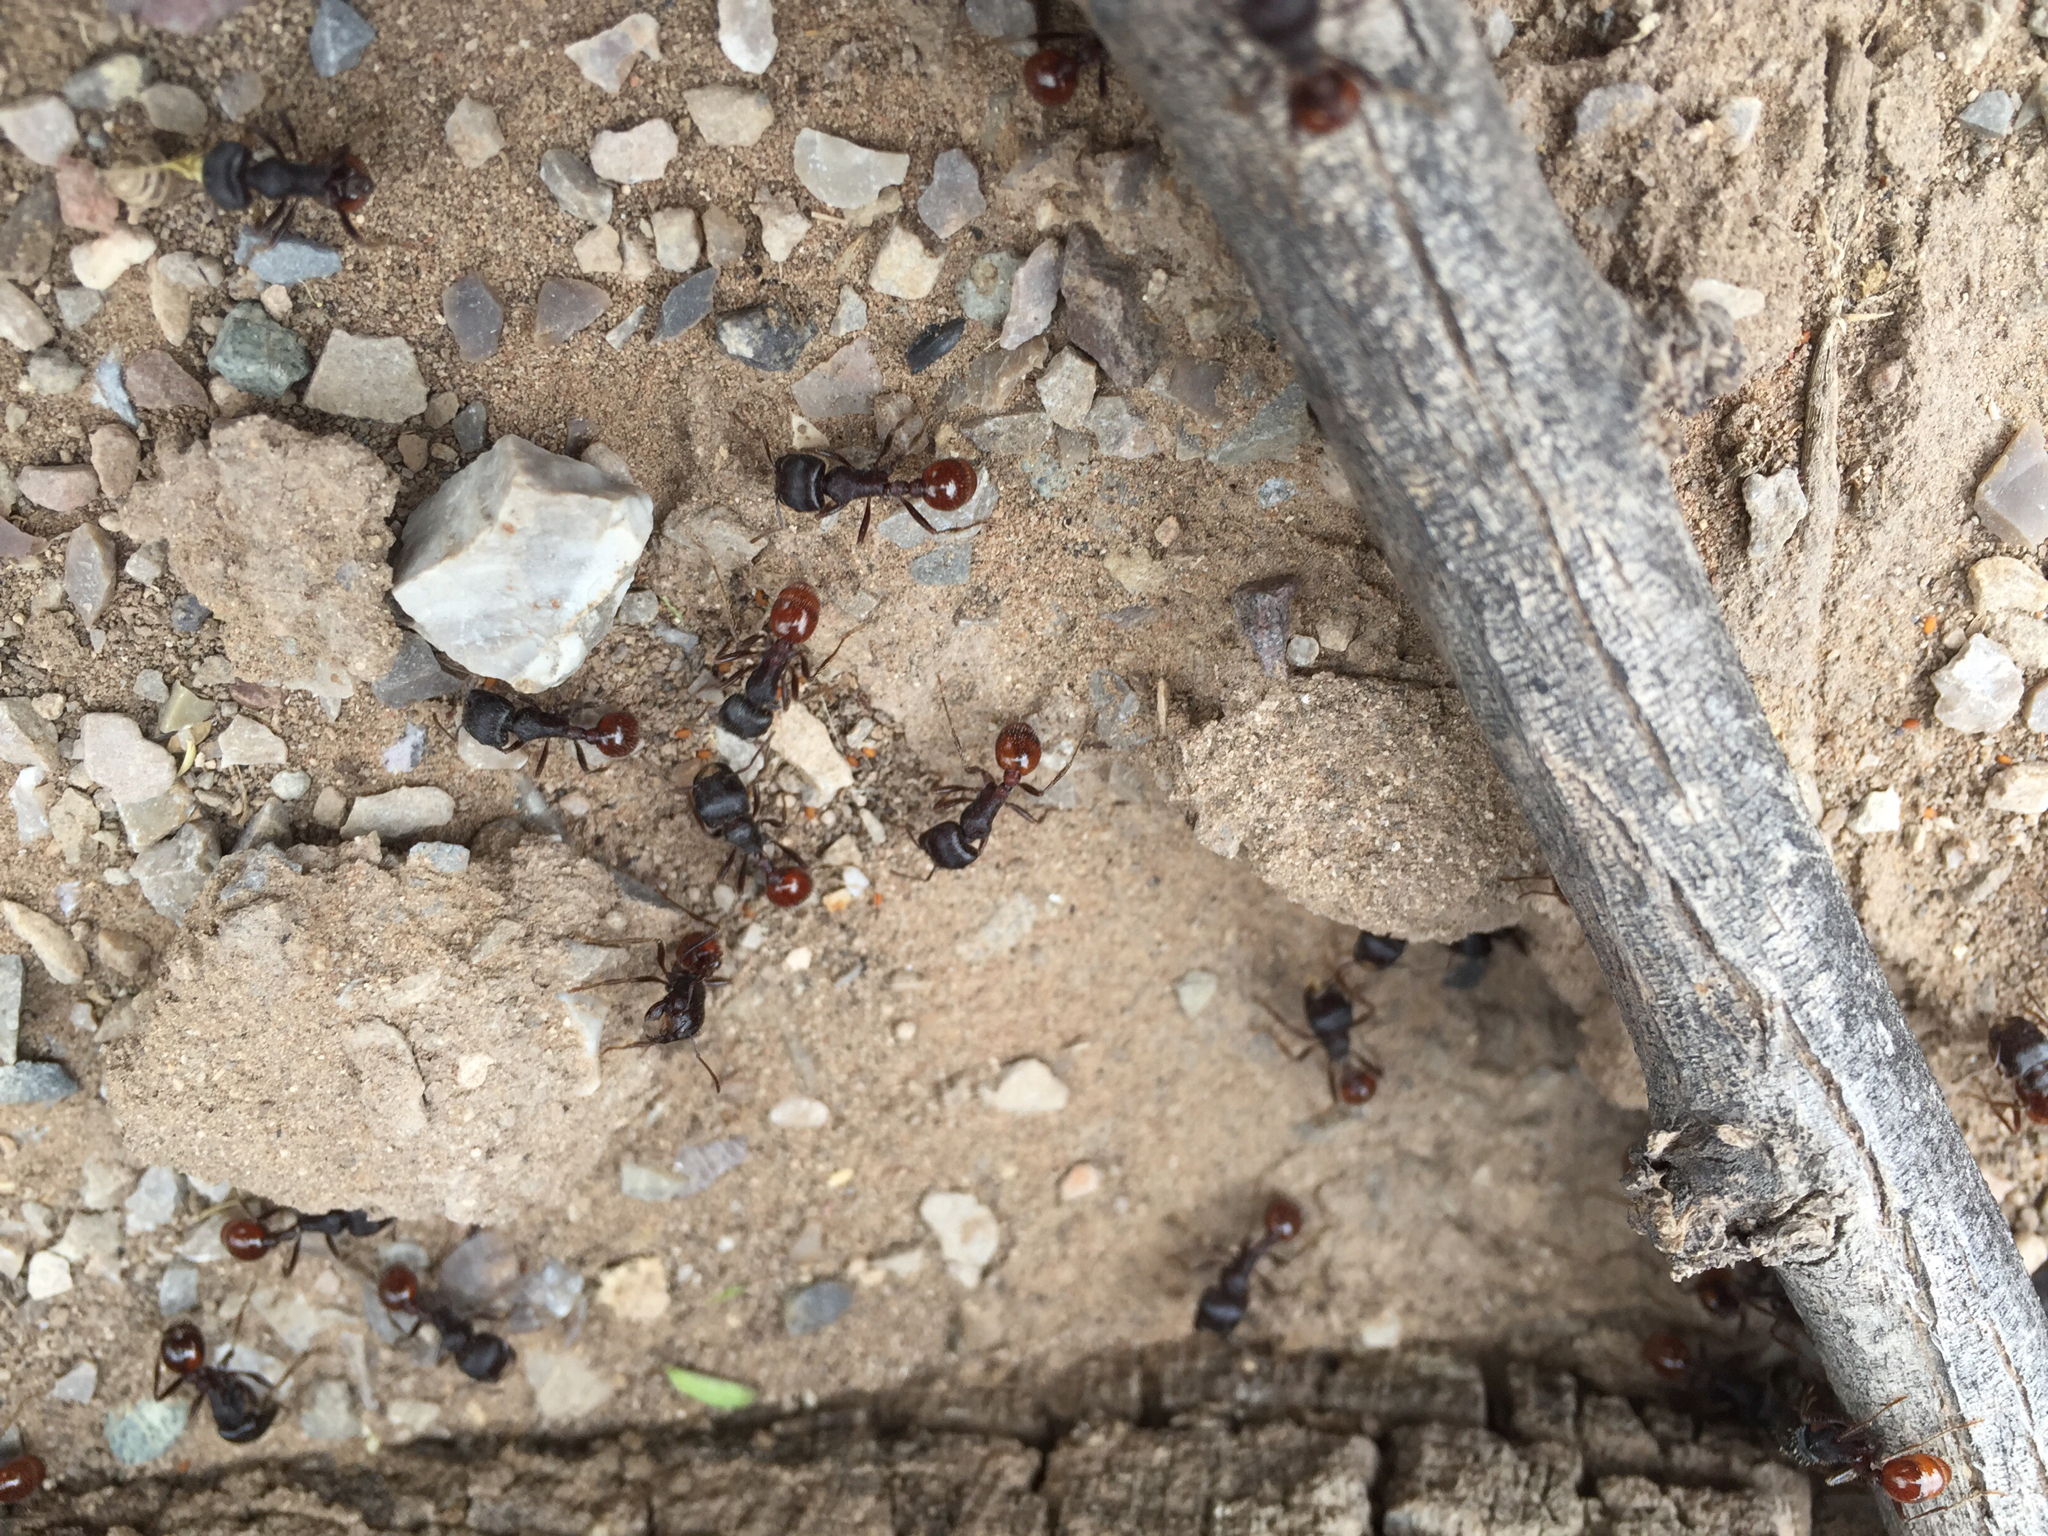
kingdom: Animalia
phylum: Arthropoda
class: Insecta
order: Hymenoptera
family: Formicidae
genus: Pogonomyrmex
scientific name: Pogonomyrmex rugosus
